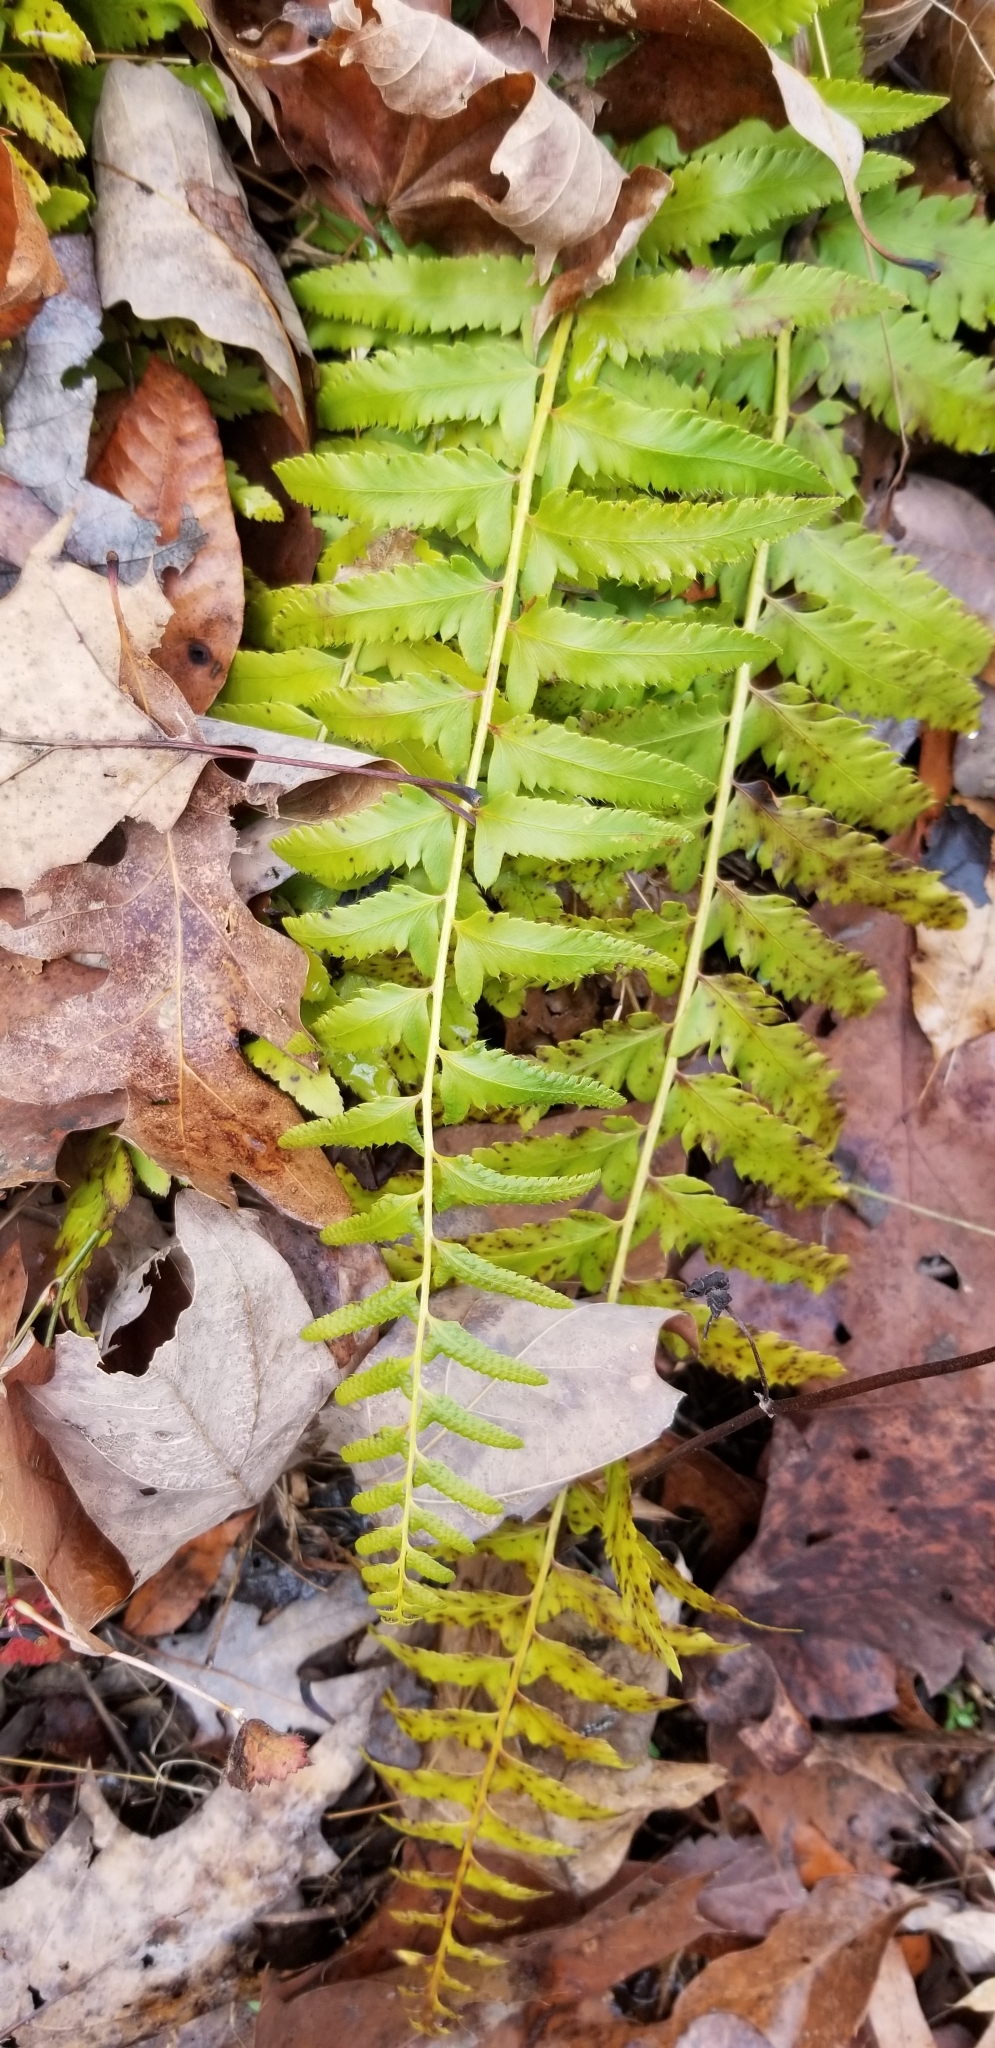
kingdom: Plantae
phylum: Tracheophyta
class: Polypodiopsida
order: Polypodiales
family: Dryopteridaceae
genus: Polystichum
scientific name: Polystichum acrostichoides
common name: Christmas fern
